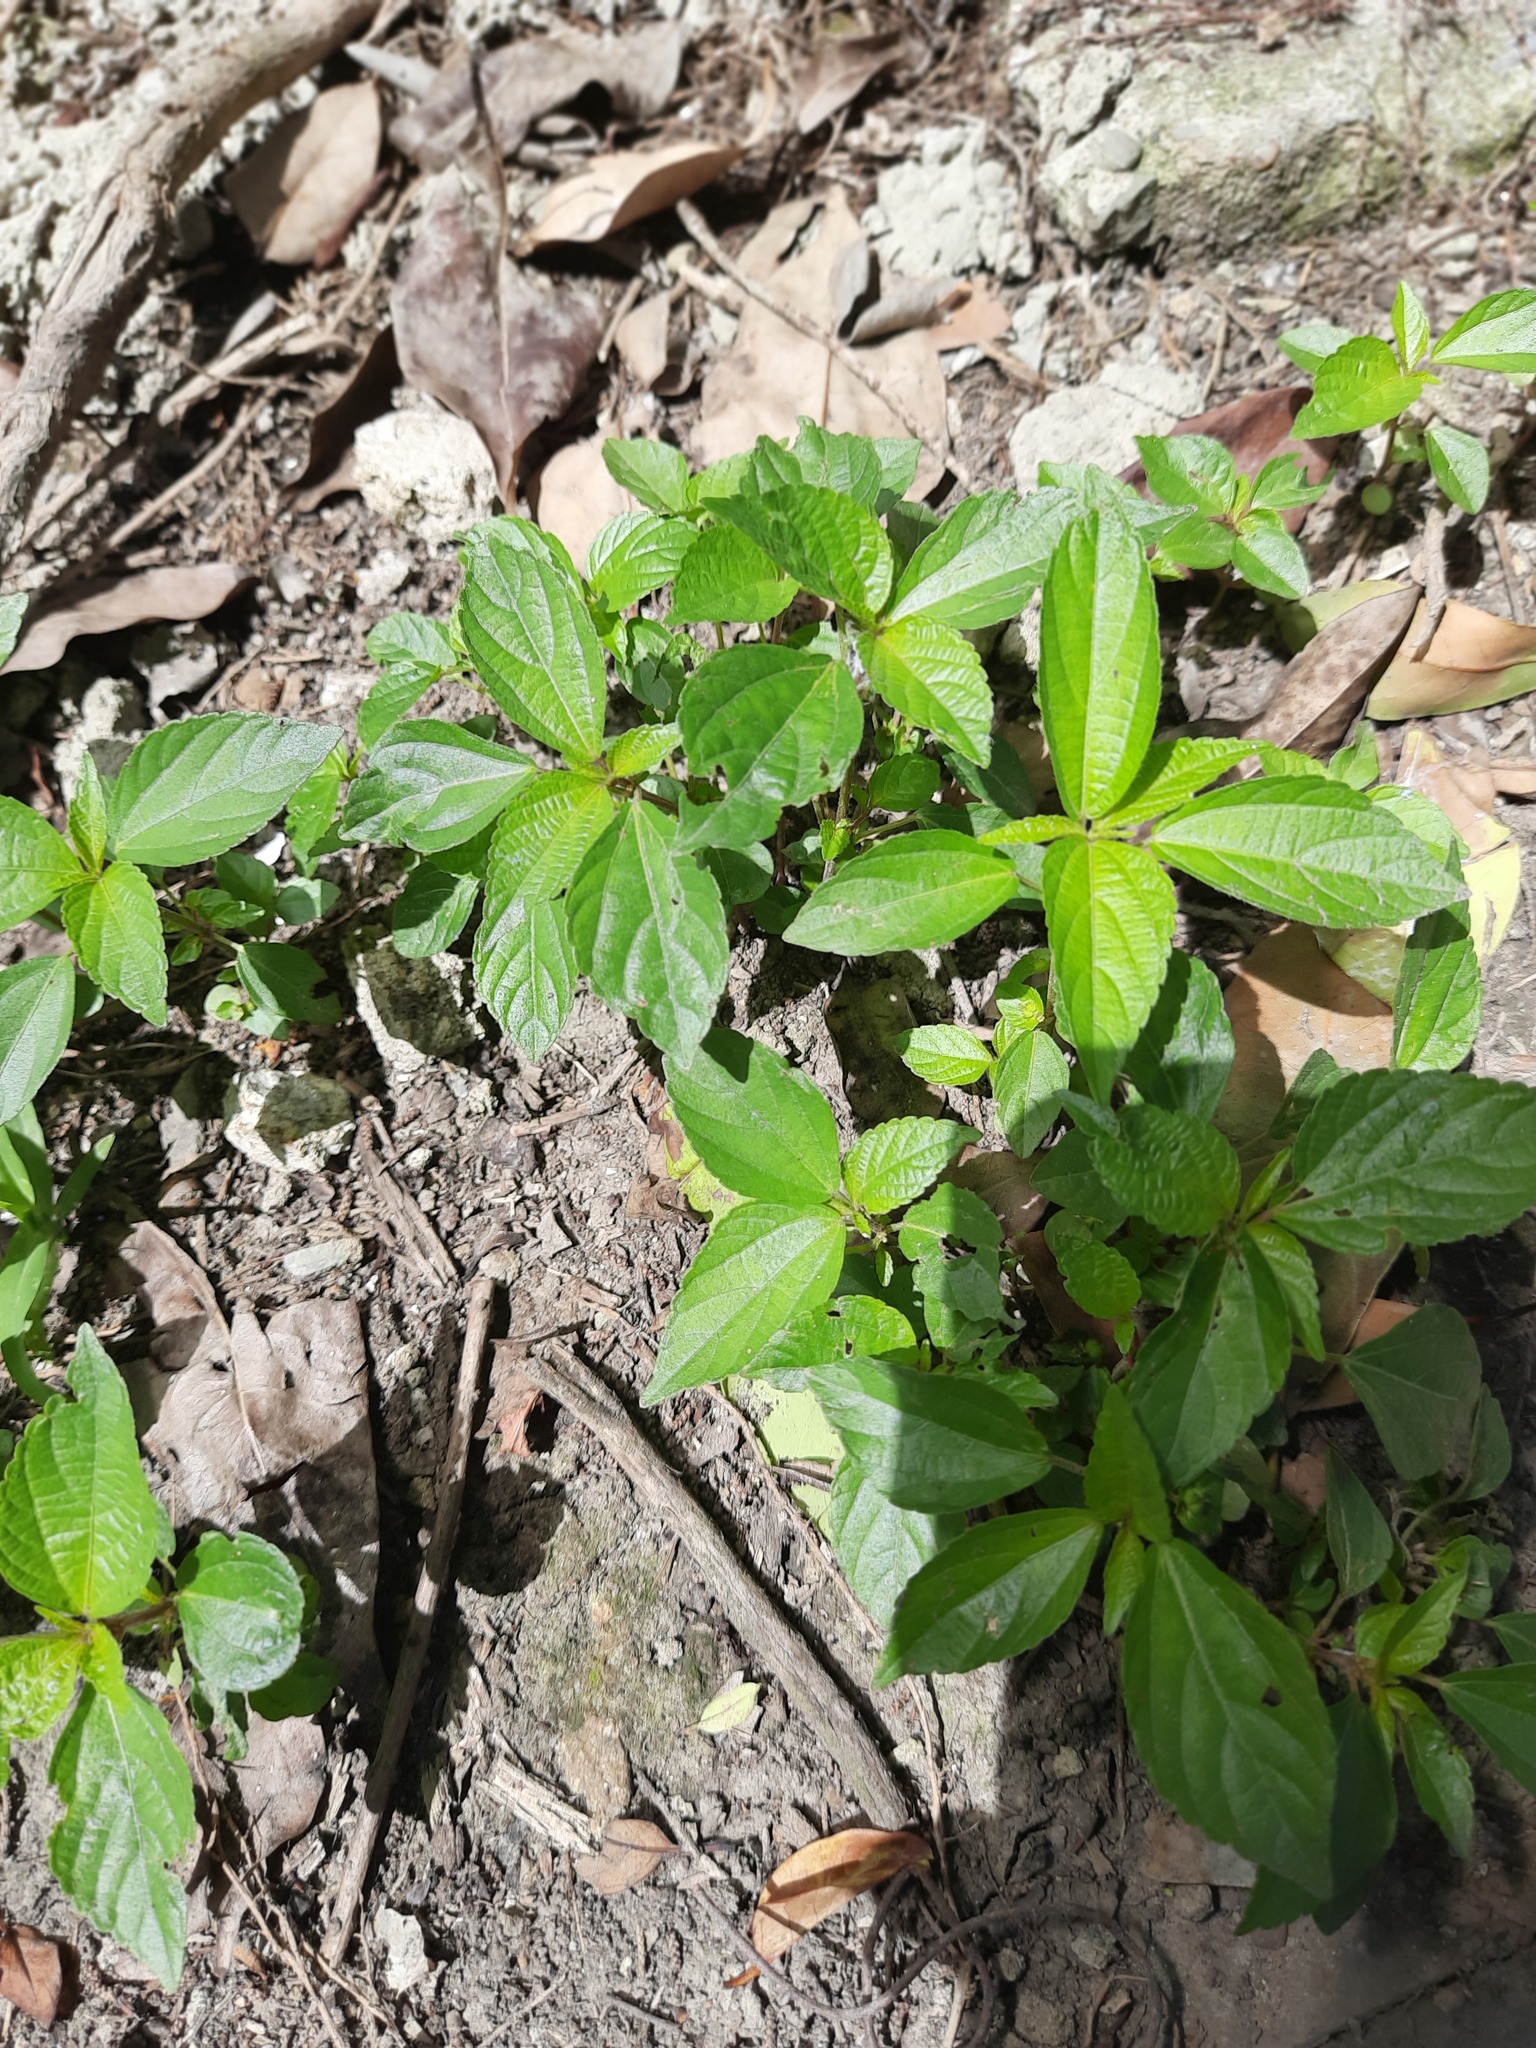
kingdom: Plantae
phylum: Tracheophyta
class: Magnoliopsida
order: Malpighiales
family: Euphorbiaceae
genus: Acalypha
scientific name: Acalypha australis
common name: Asian copperleaf
